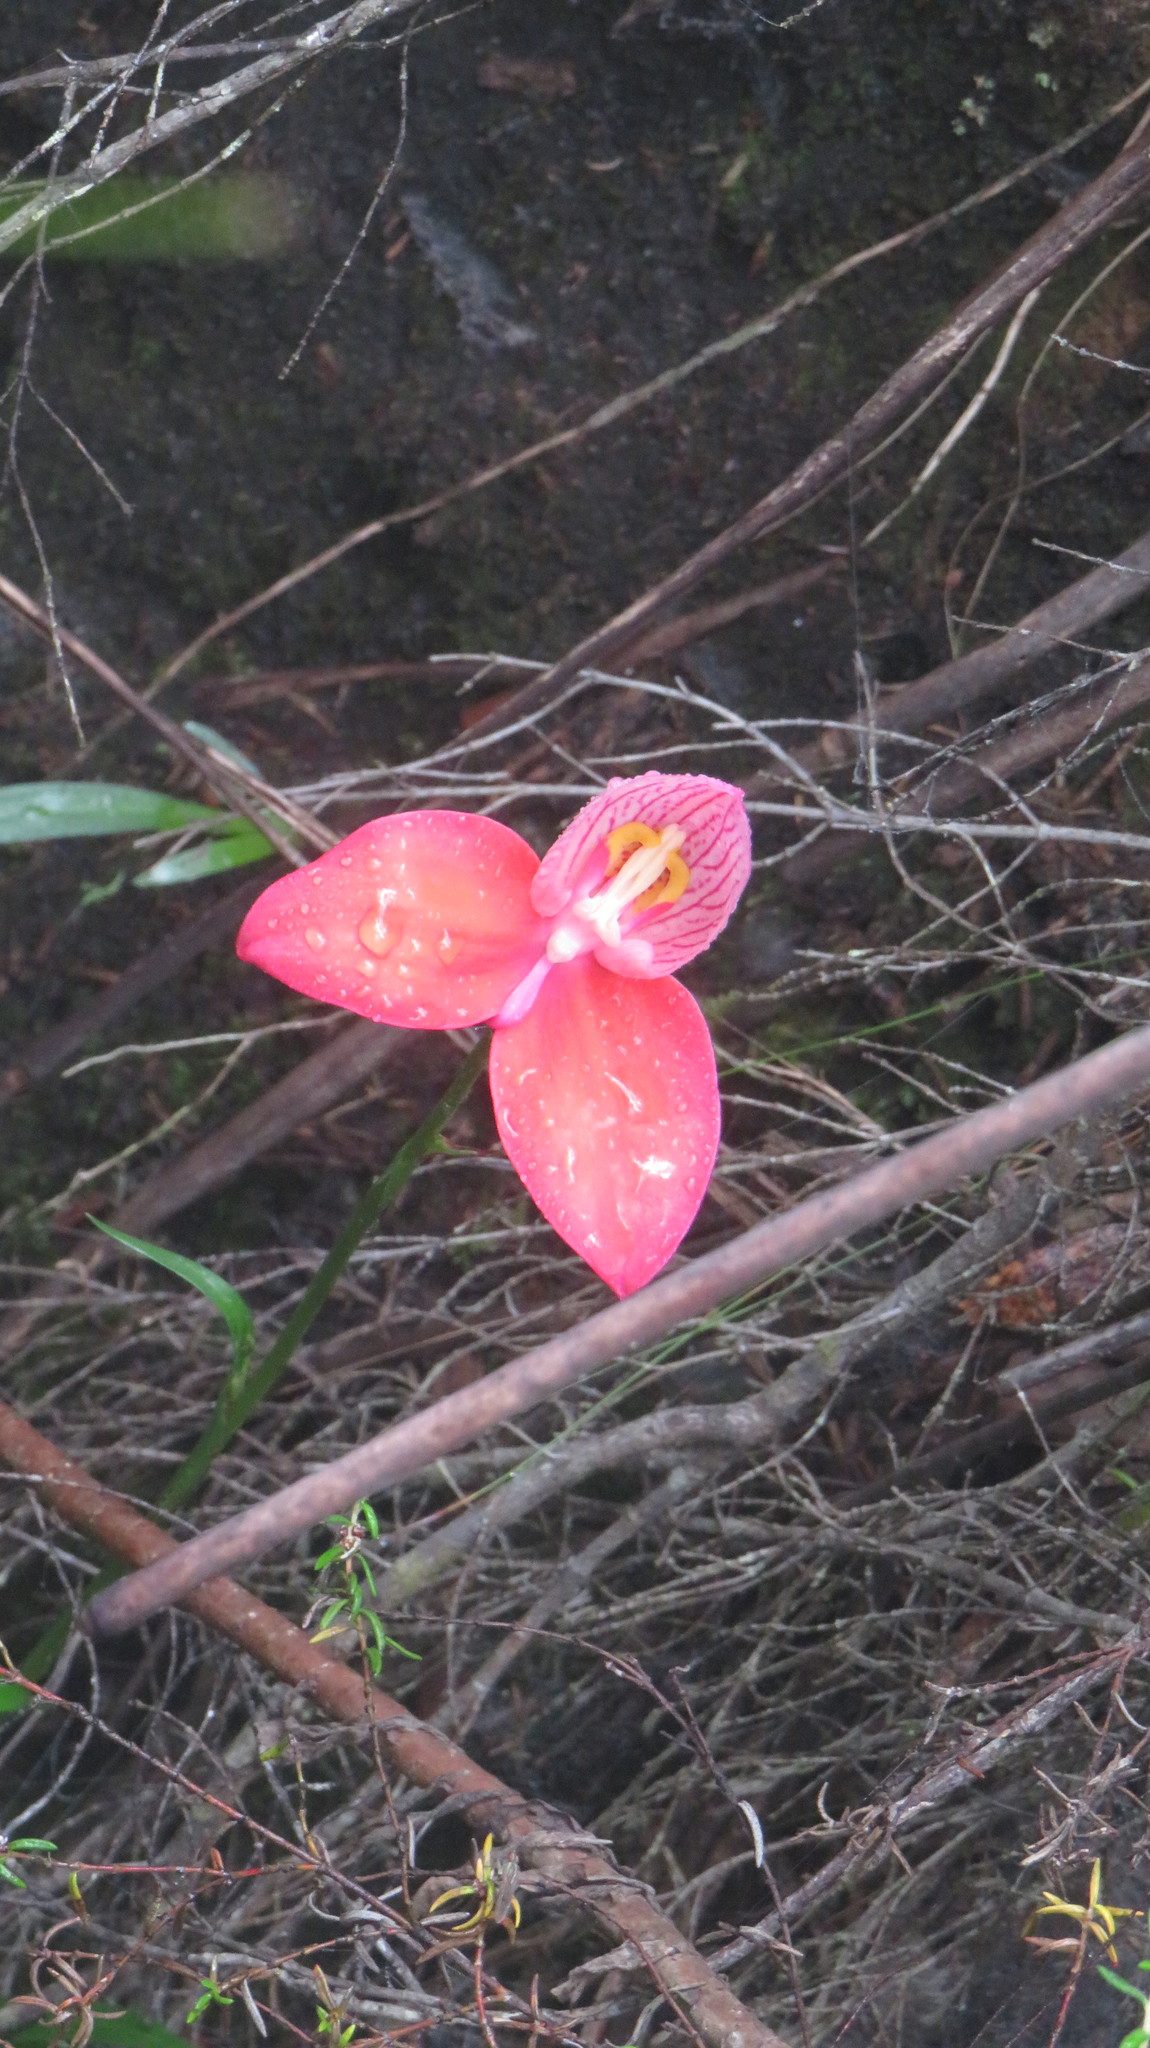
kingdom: Plantae
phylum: Tracheophyta
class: Liliopsida
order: Asparagales
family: Orchidaceae
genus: Disa
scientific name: Disa uniflora
